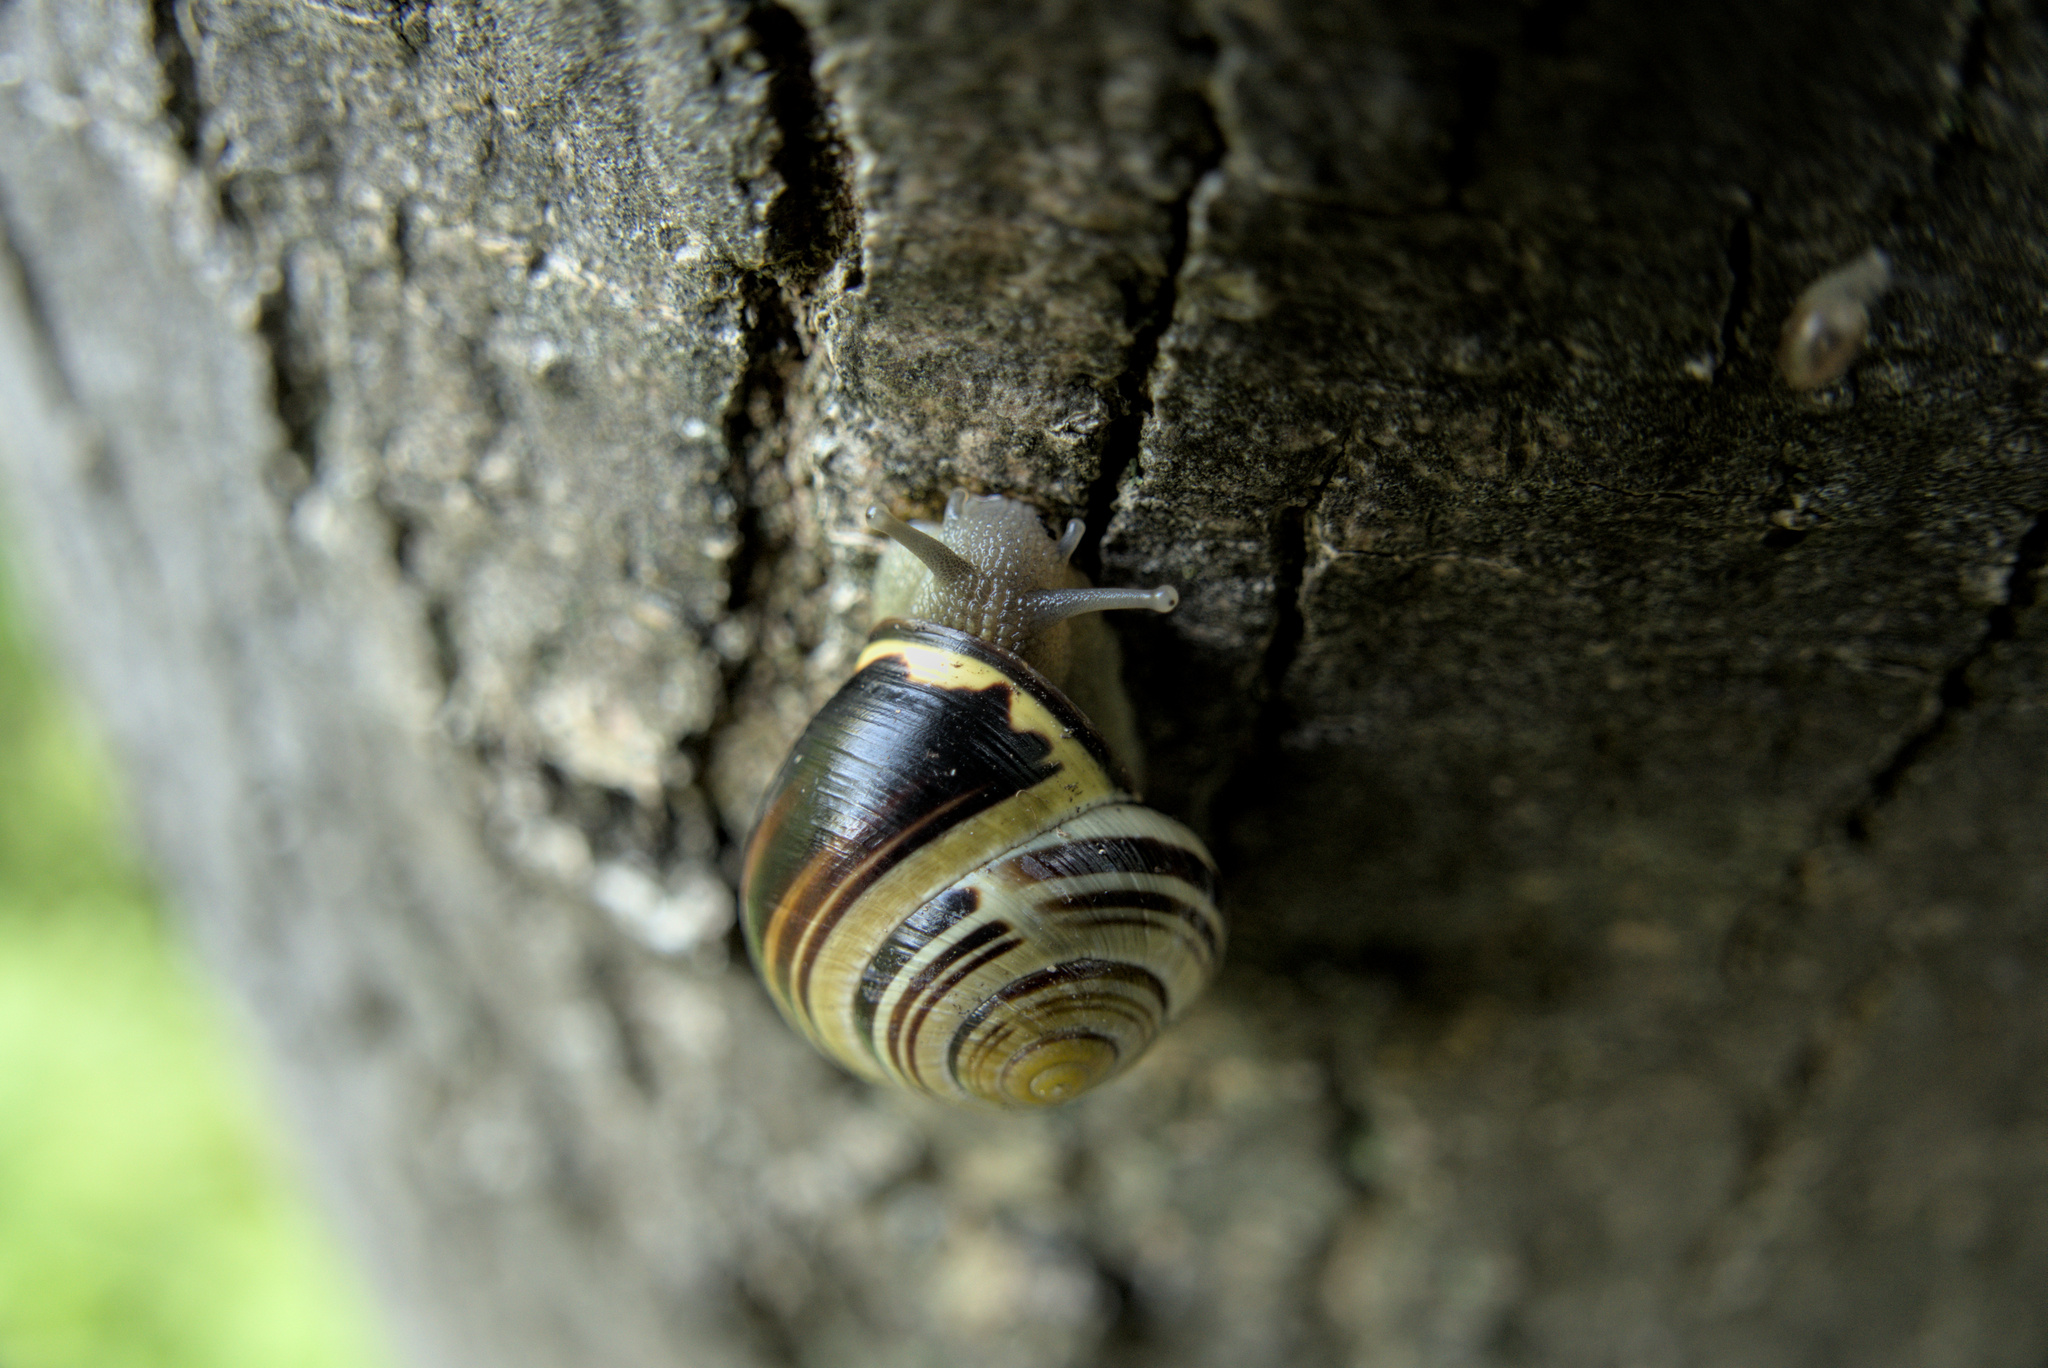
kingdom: Animalia
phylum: Mollusca
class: Gastropoda
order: Stylommatophora
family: Helicidae
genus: Cepaea
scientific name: Cepaea nemoralis
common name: Grovesnail
